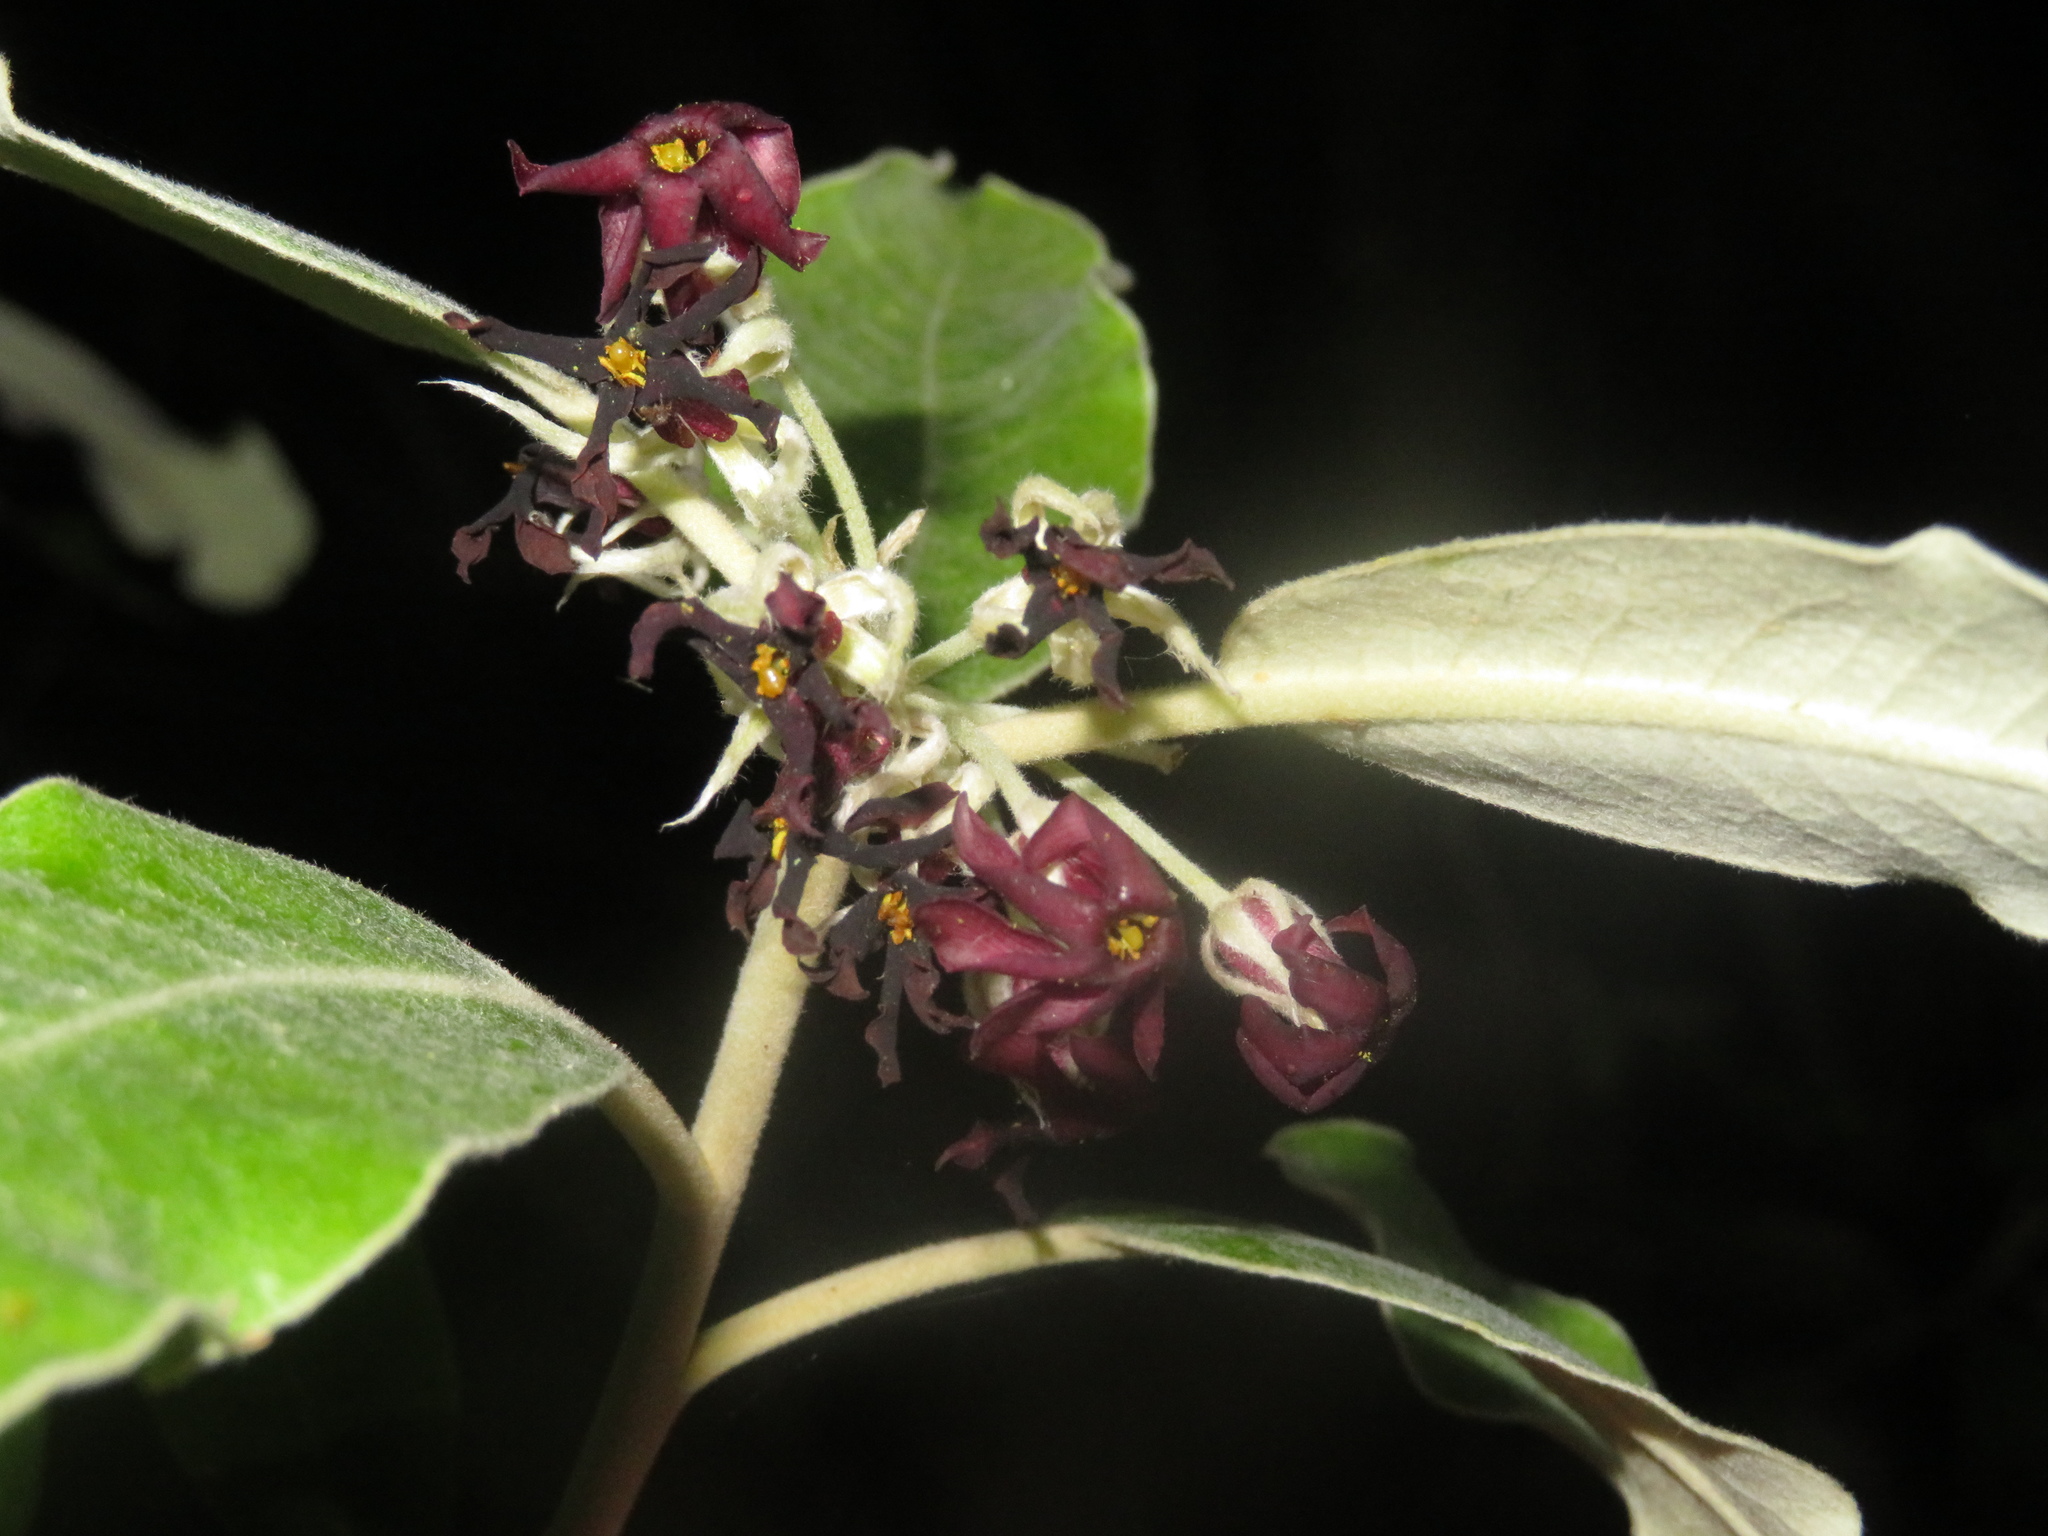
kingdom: Plantae
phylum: Tracheophyta
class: Magnoliopsida
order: Apiales
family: Pittosporaceae
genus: Pittosporum
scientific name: Pittosporum ralphii
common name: Ralph's desertwillow
